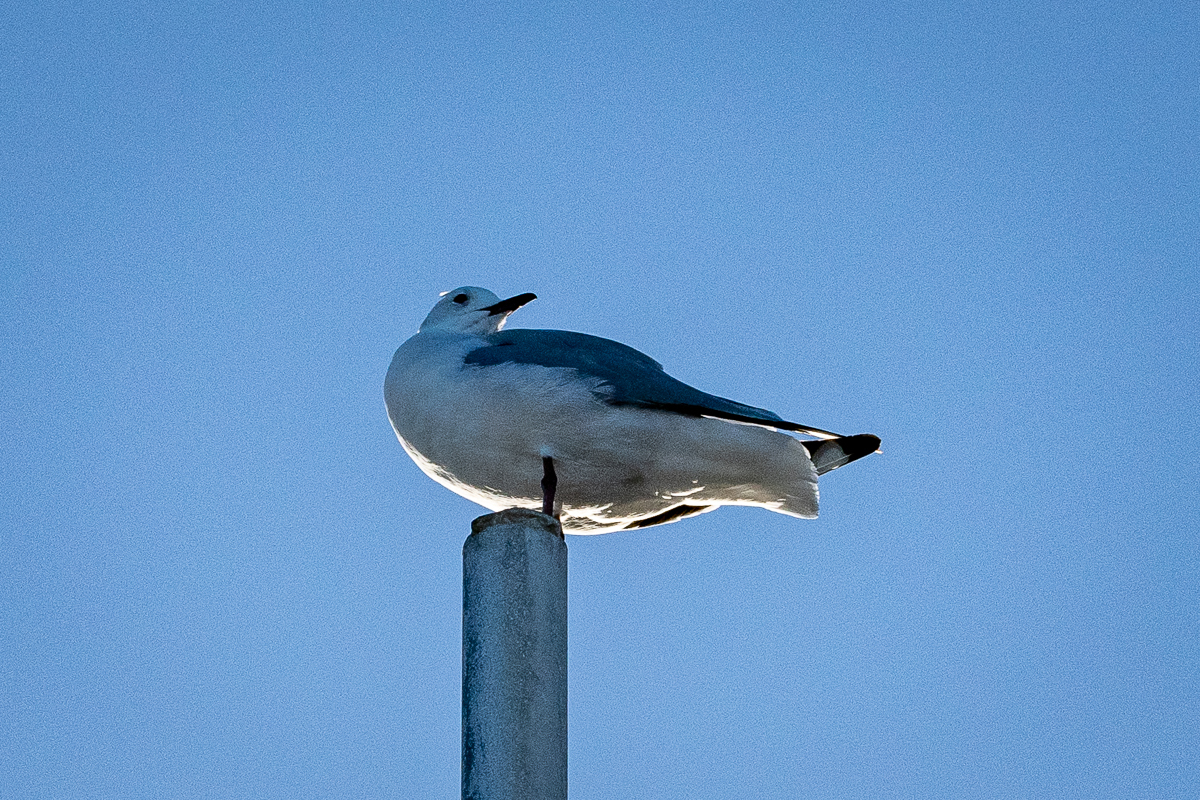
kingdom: Animalia
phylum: Chordata
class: Aves
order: Charadriiformes
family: Laridae
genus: Chroicocephalus
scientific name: Chroicocephalus hartlaubii
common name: Hartlaub's gull
